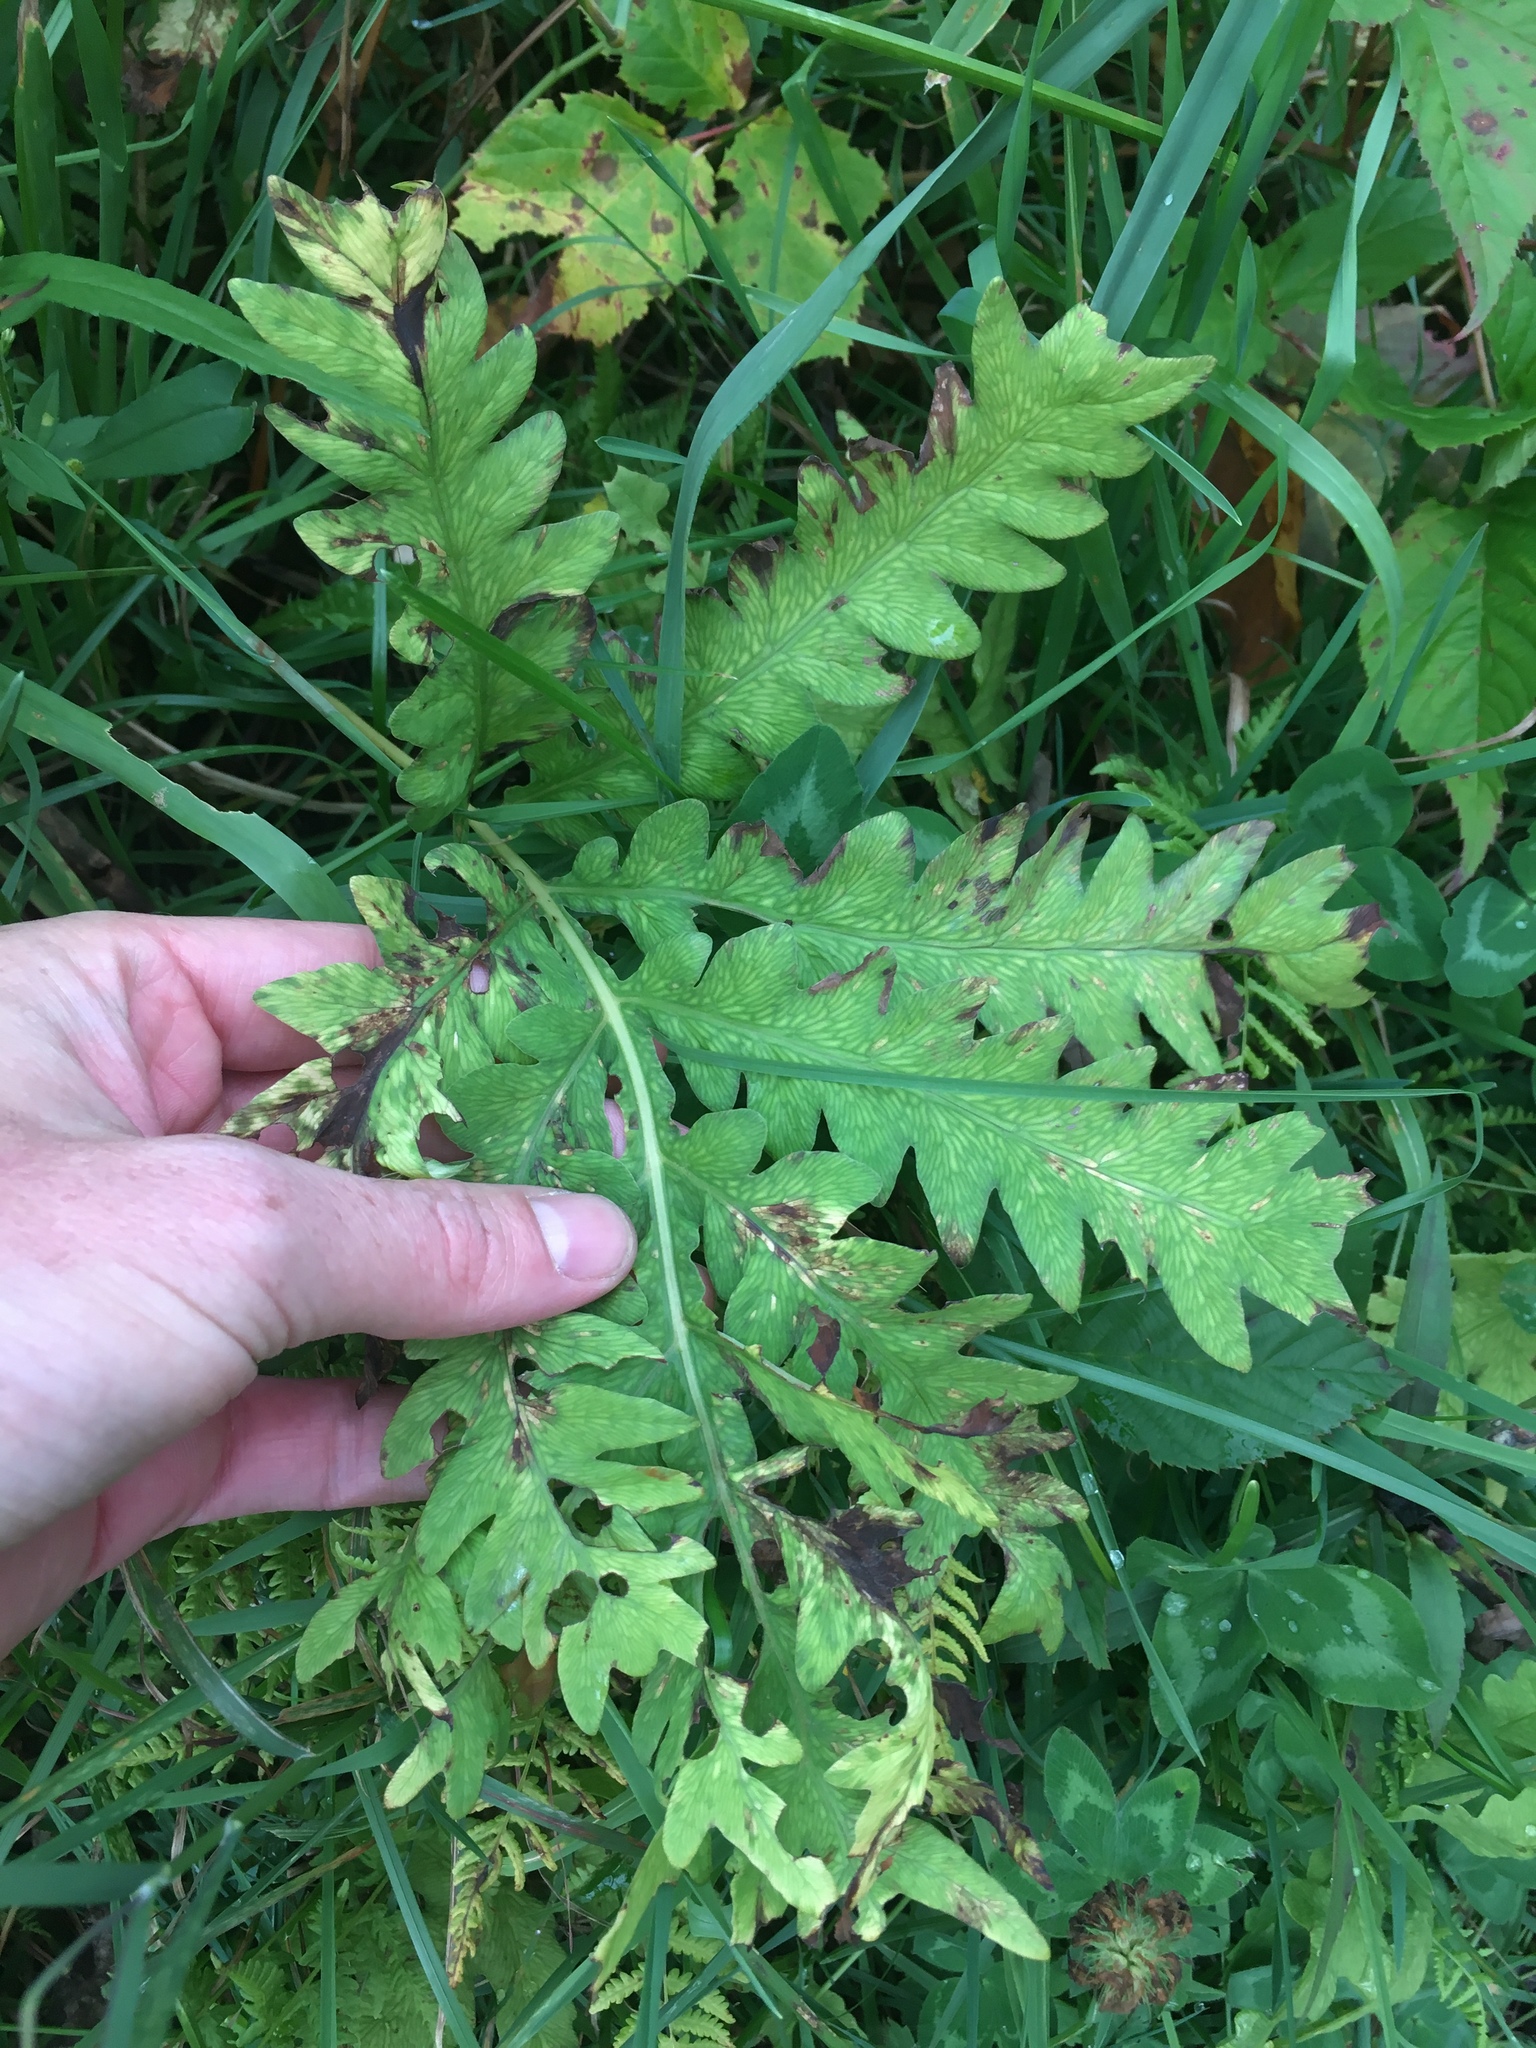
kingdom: Plantae
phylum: Tracheophyta
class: Polypodiopsida
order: Polypodiales
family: Onocleaceae
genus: Onoclea
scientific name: Onoclea sensibilis
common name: Sensitive fern
